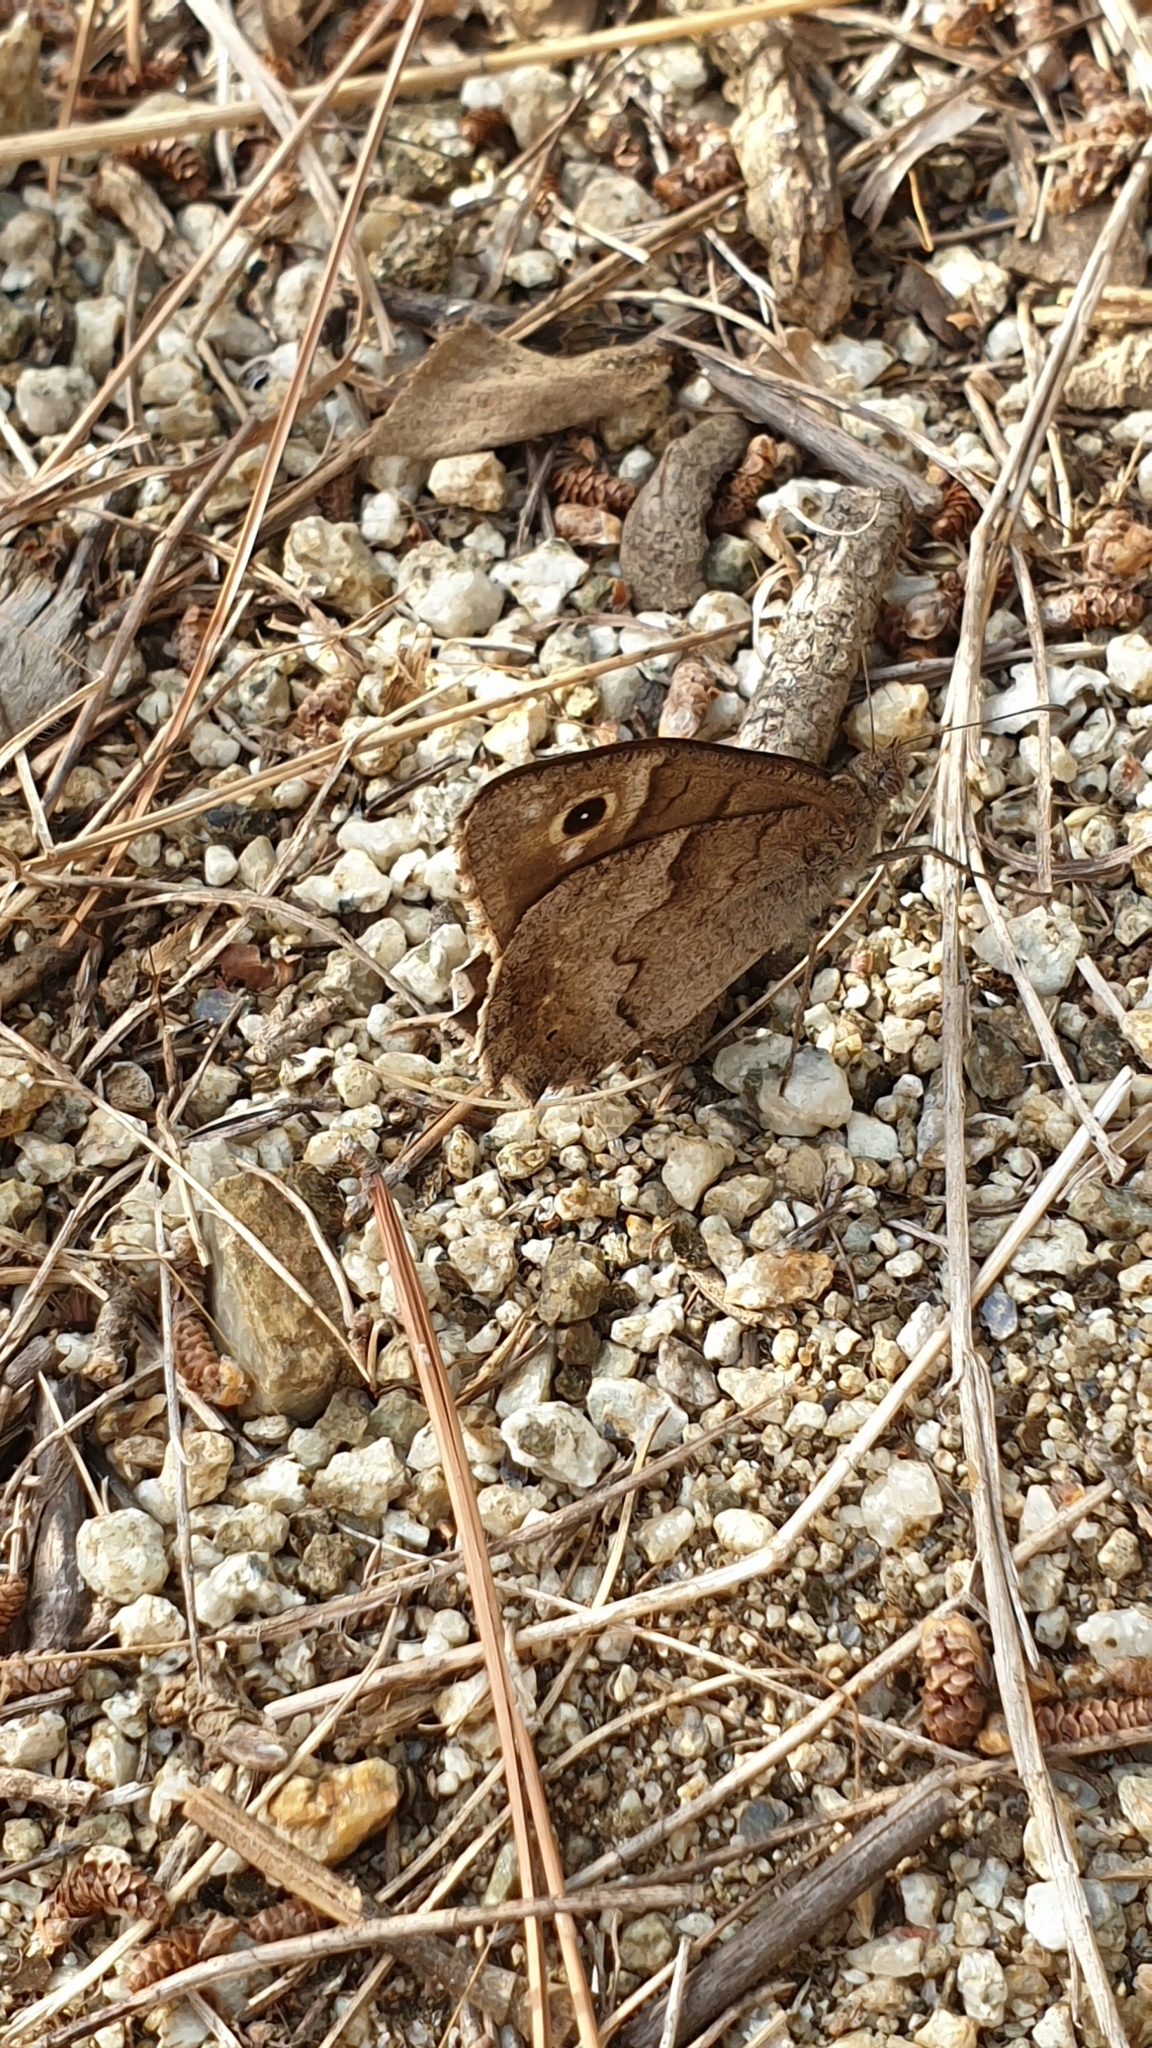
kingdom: Animalia
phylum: Arthropoda
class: Insecta
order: Lepidoptera
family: Nymphalidae
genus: Hipparchia
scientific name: Hipparchia statilinus
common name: Tree grayling
